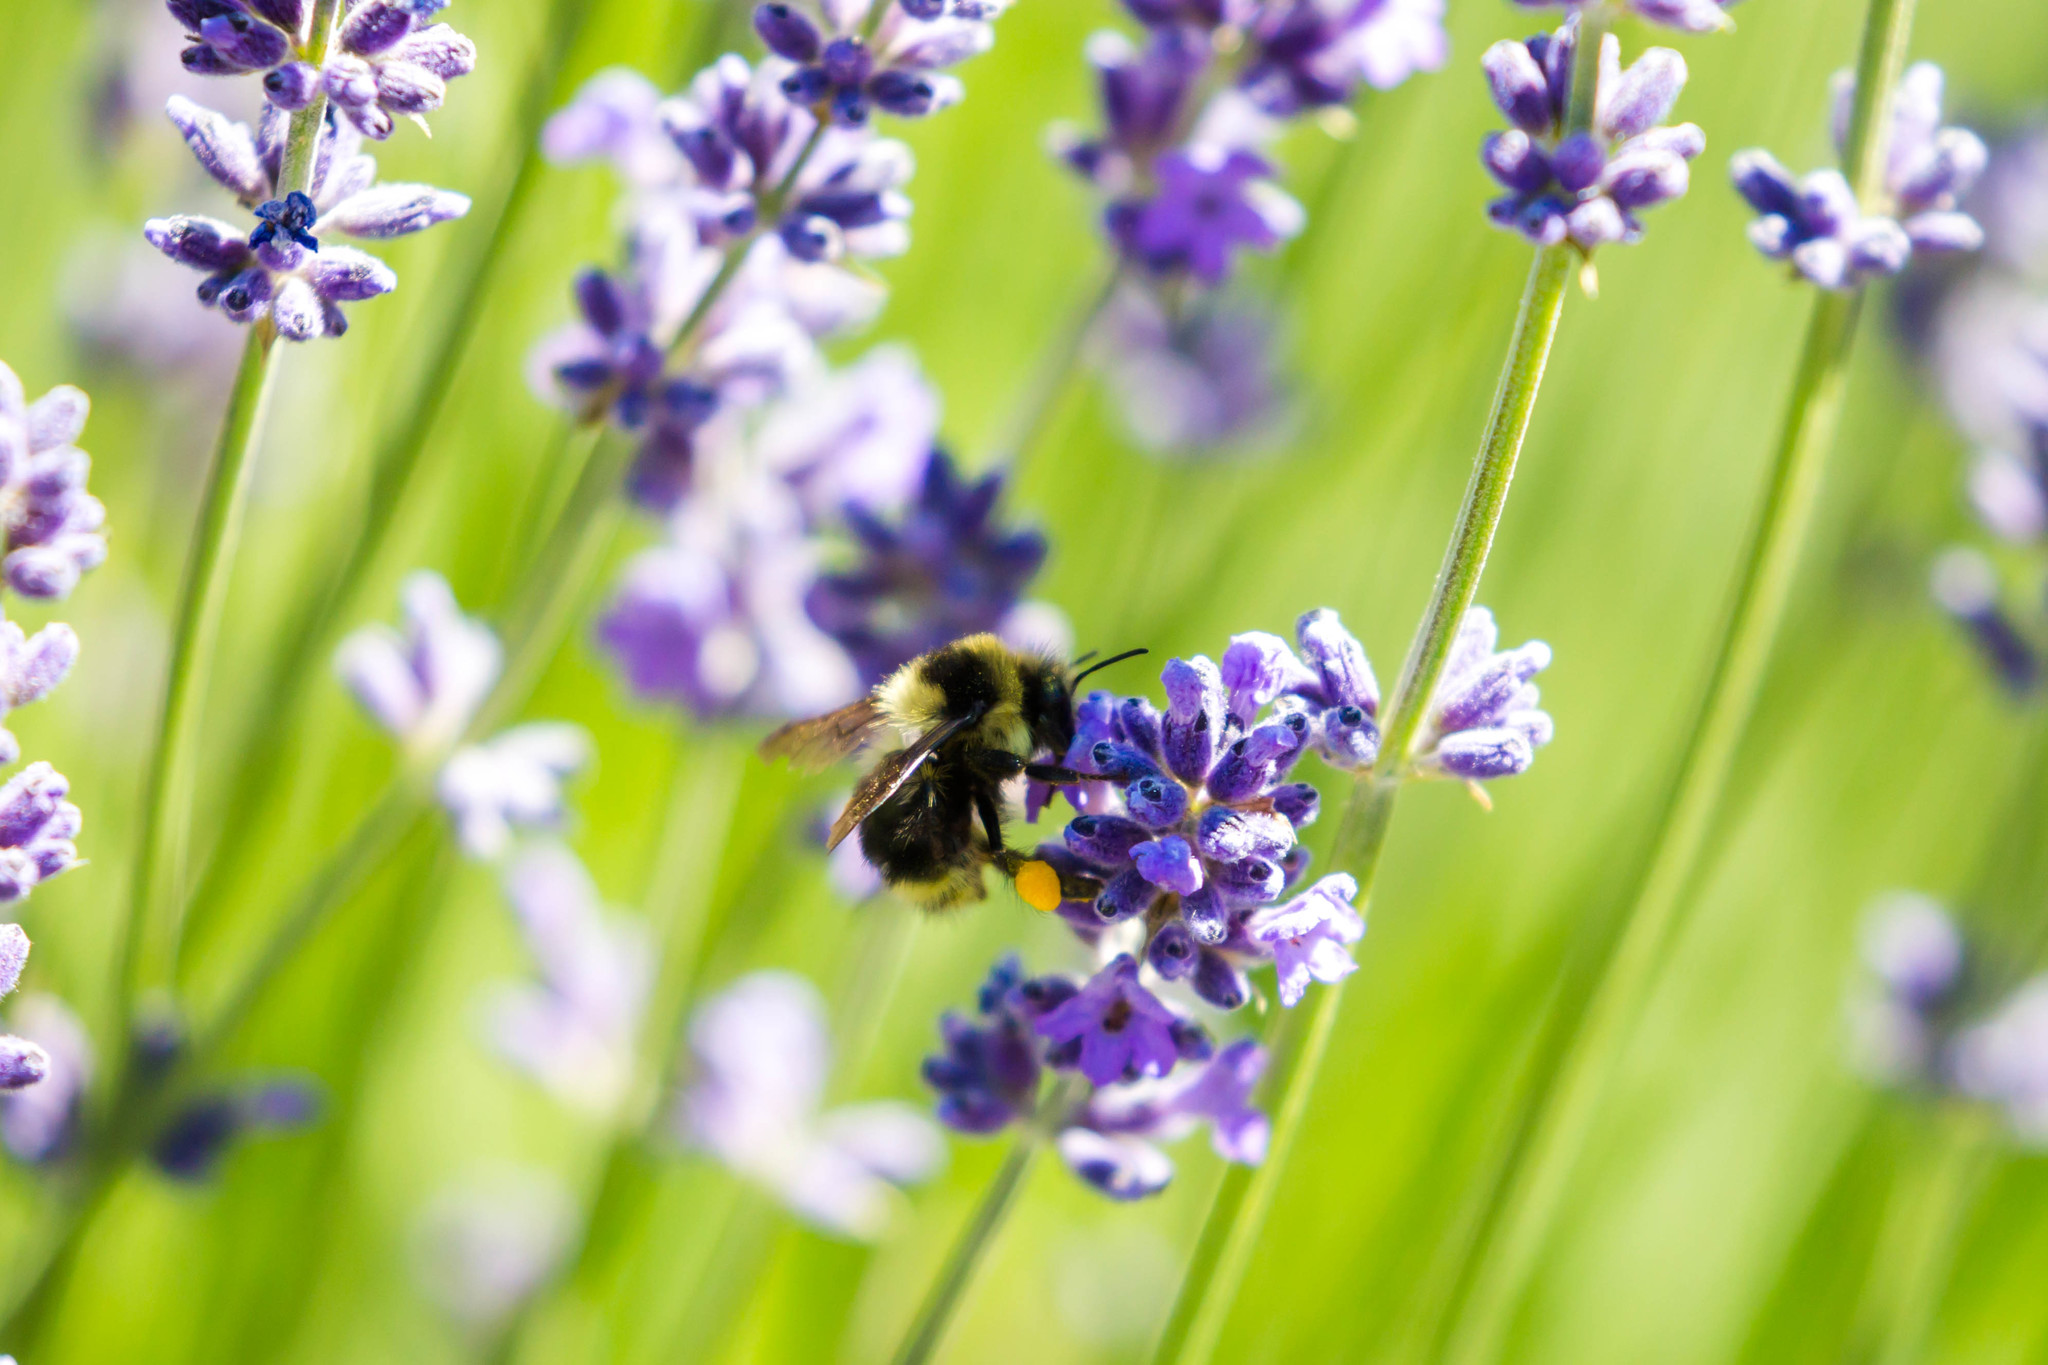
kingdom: Animalia
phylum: Arthropoda
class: Insecta
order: Hymenoptera
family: Apidae
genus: Bombus
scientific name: Bombus melanopygus
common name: Black tail bumble bee
